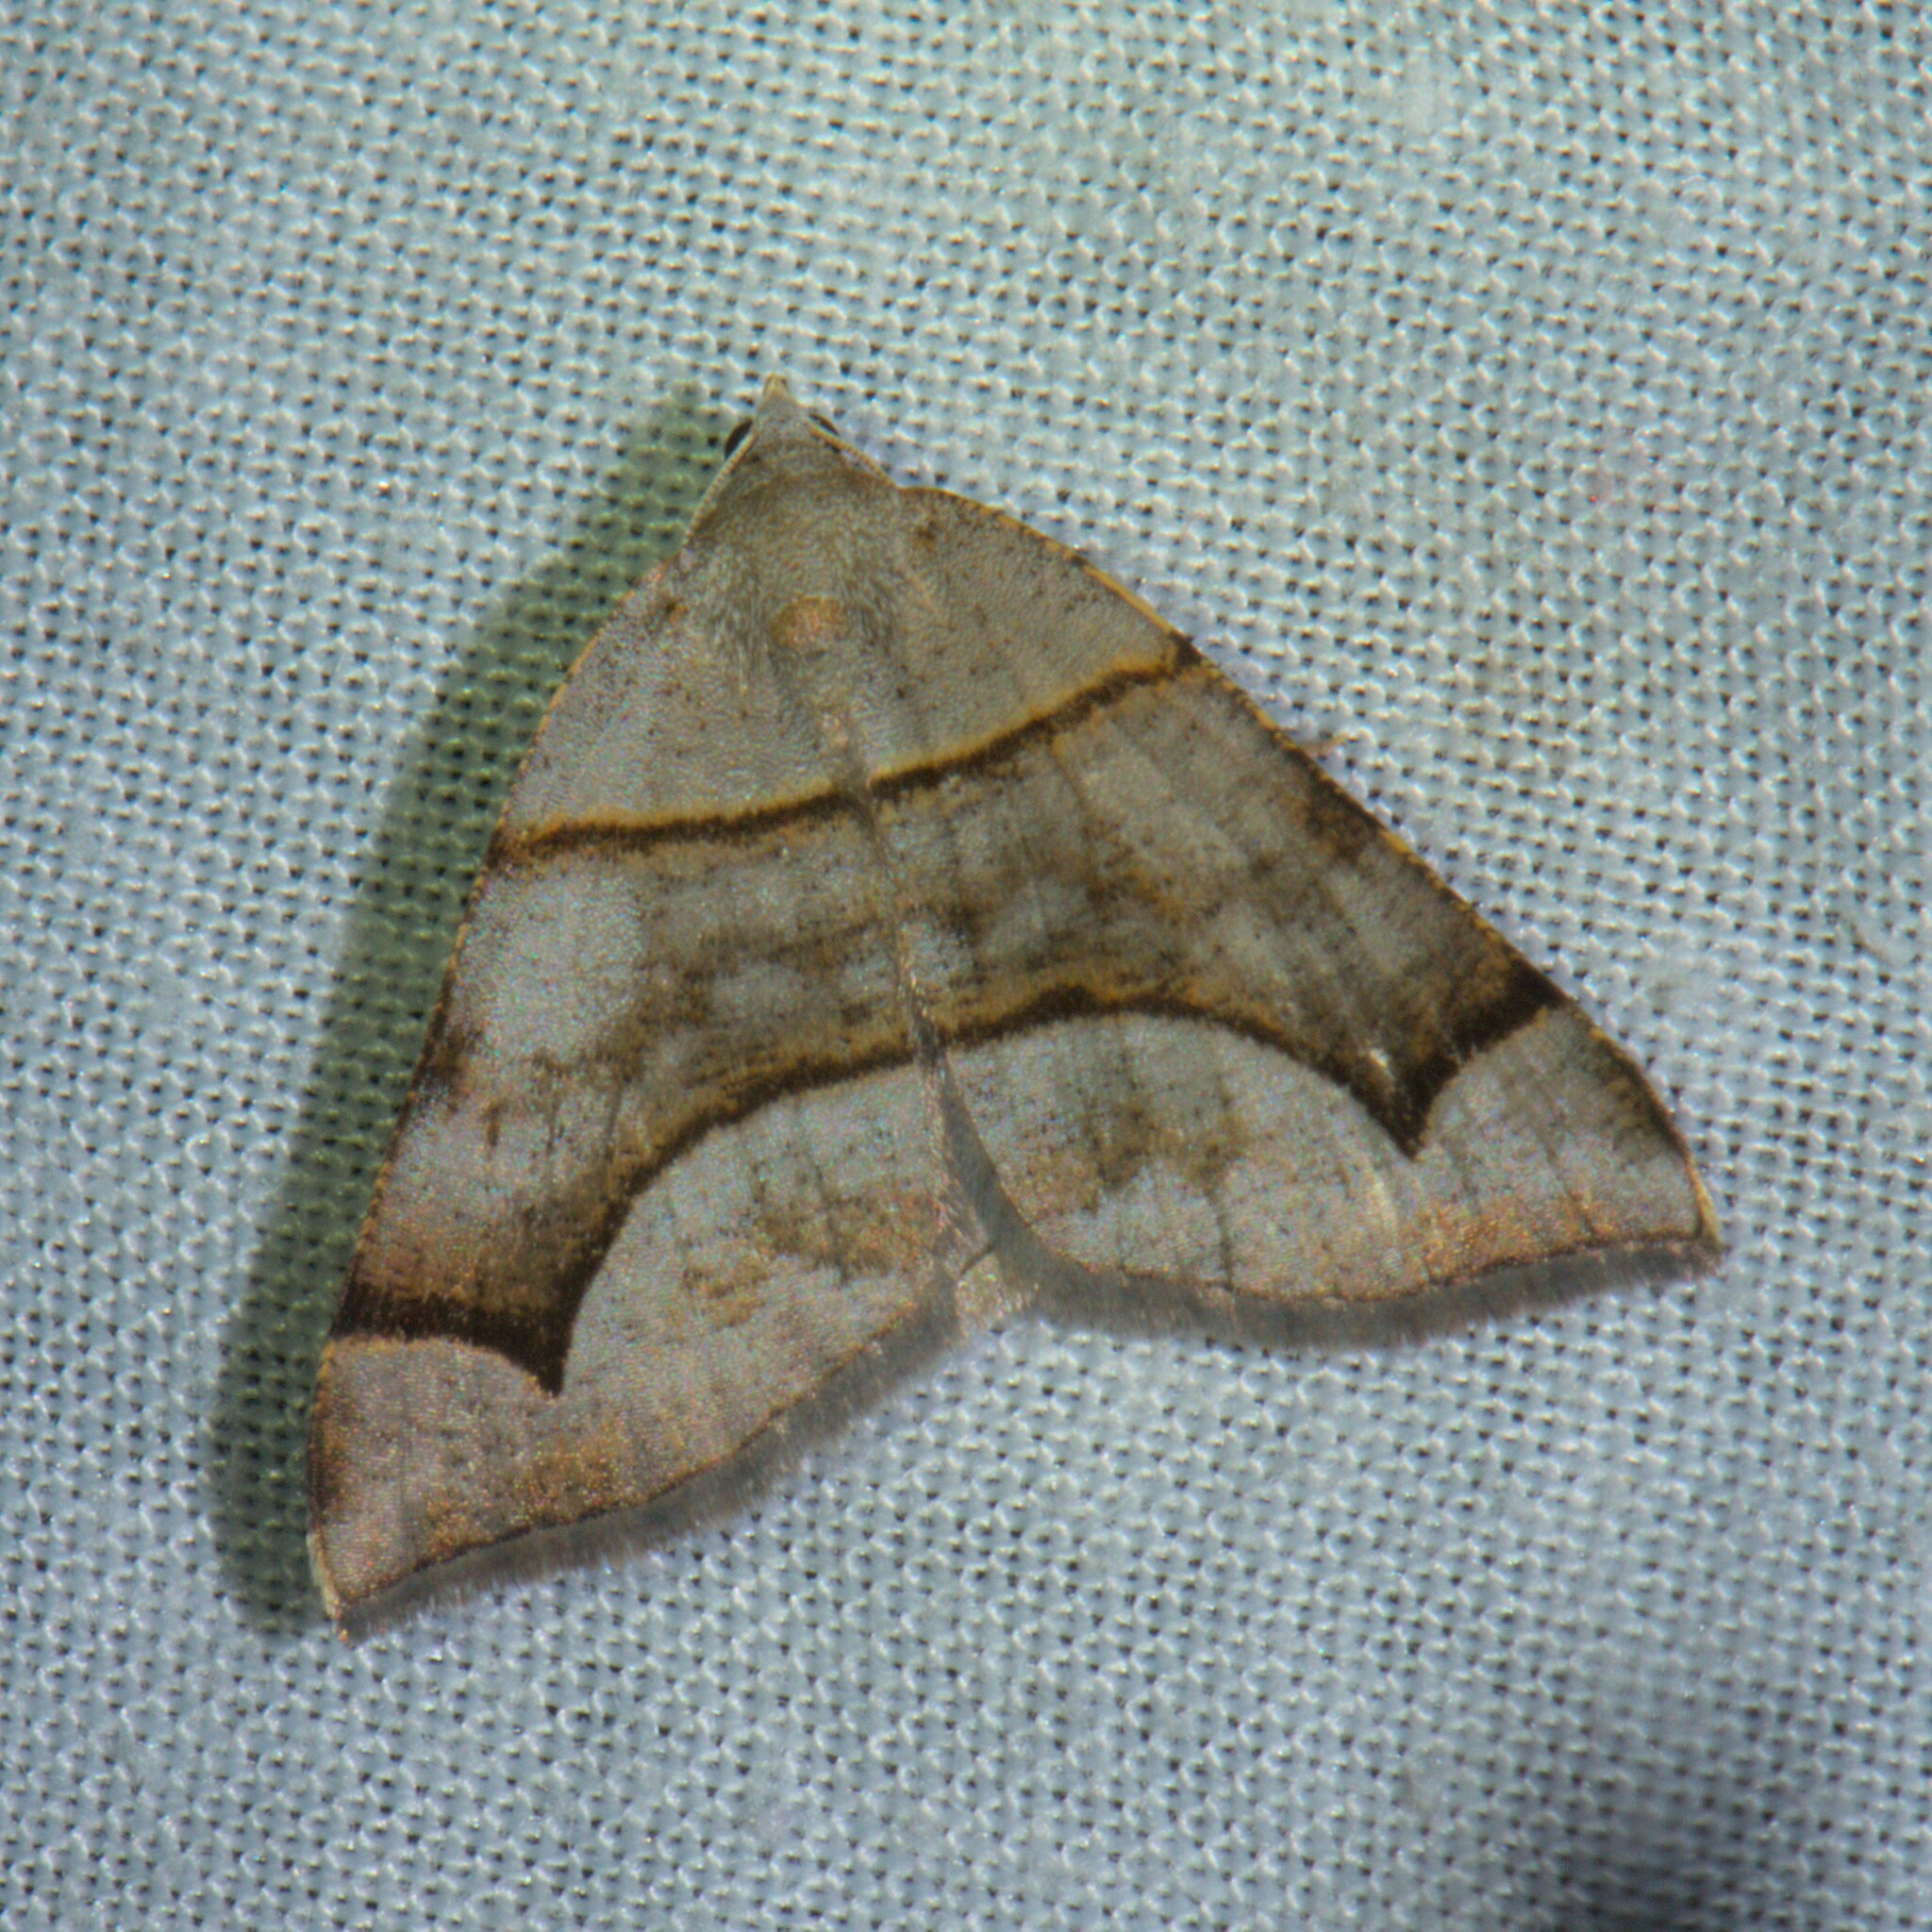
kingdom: Animalia
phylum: Arthropoda
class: Insecta
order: Lepidoptera
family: Geometridae
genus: Anonychia
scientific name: Anonychia grisea
